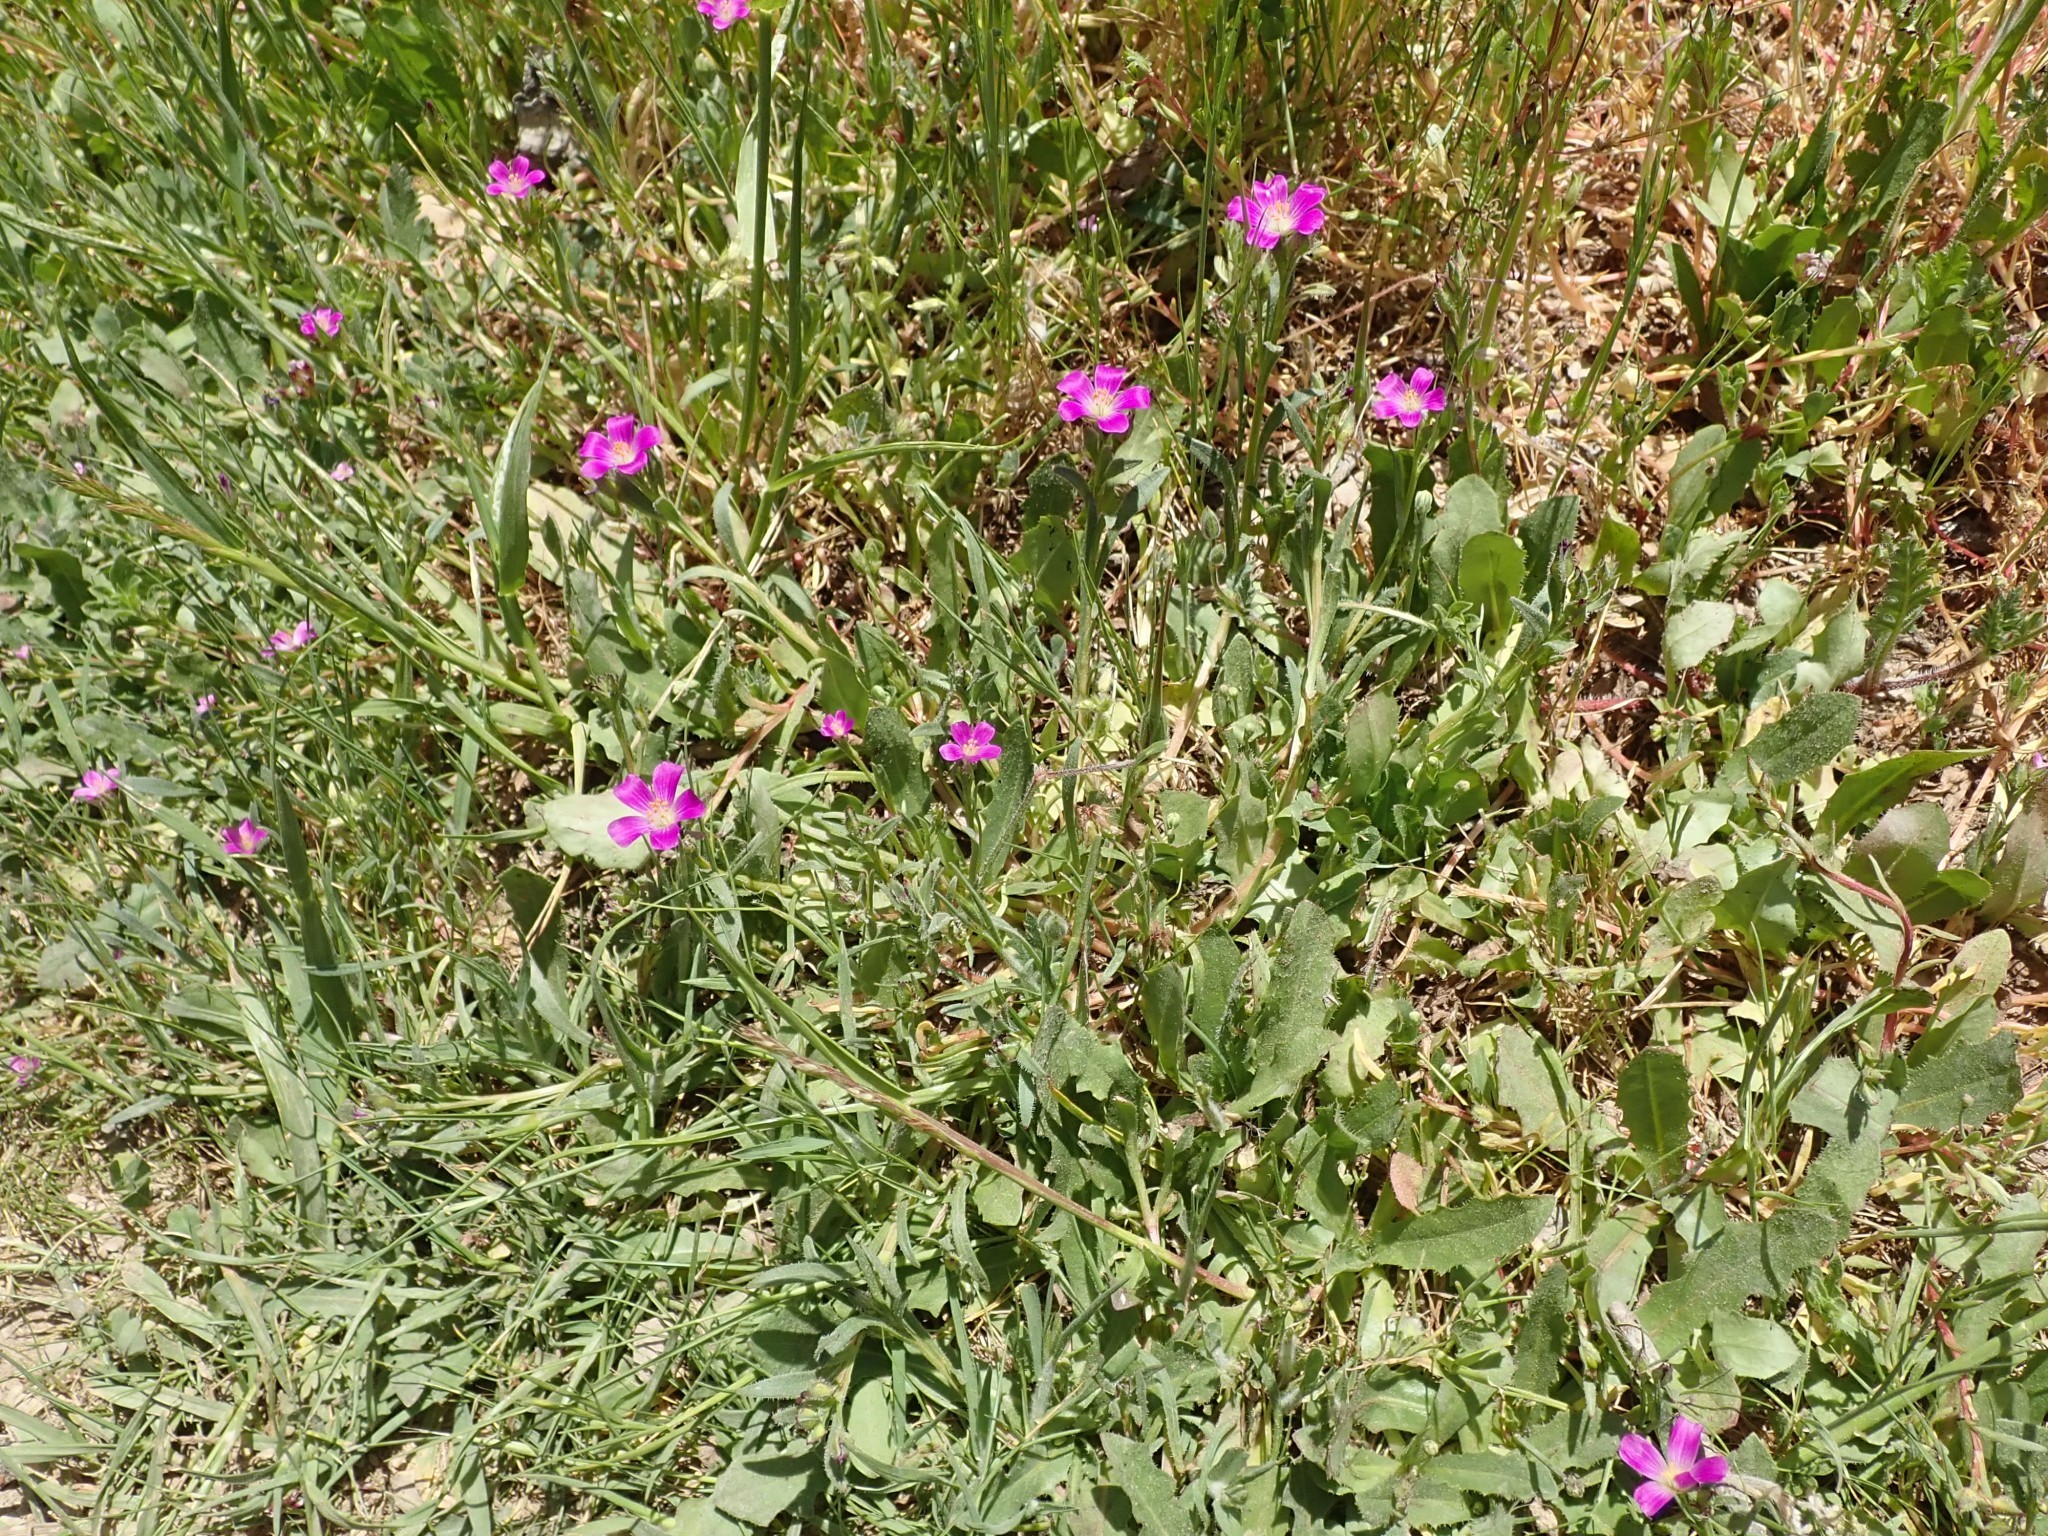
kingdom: Plantae
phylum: Tracheophyta
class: Magnoliopsida
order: Caryophyllales
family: Montiaceae
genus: Calandrinia
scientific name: Calandrinia menziesii
